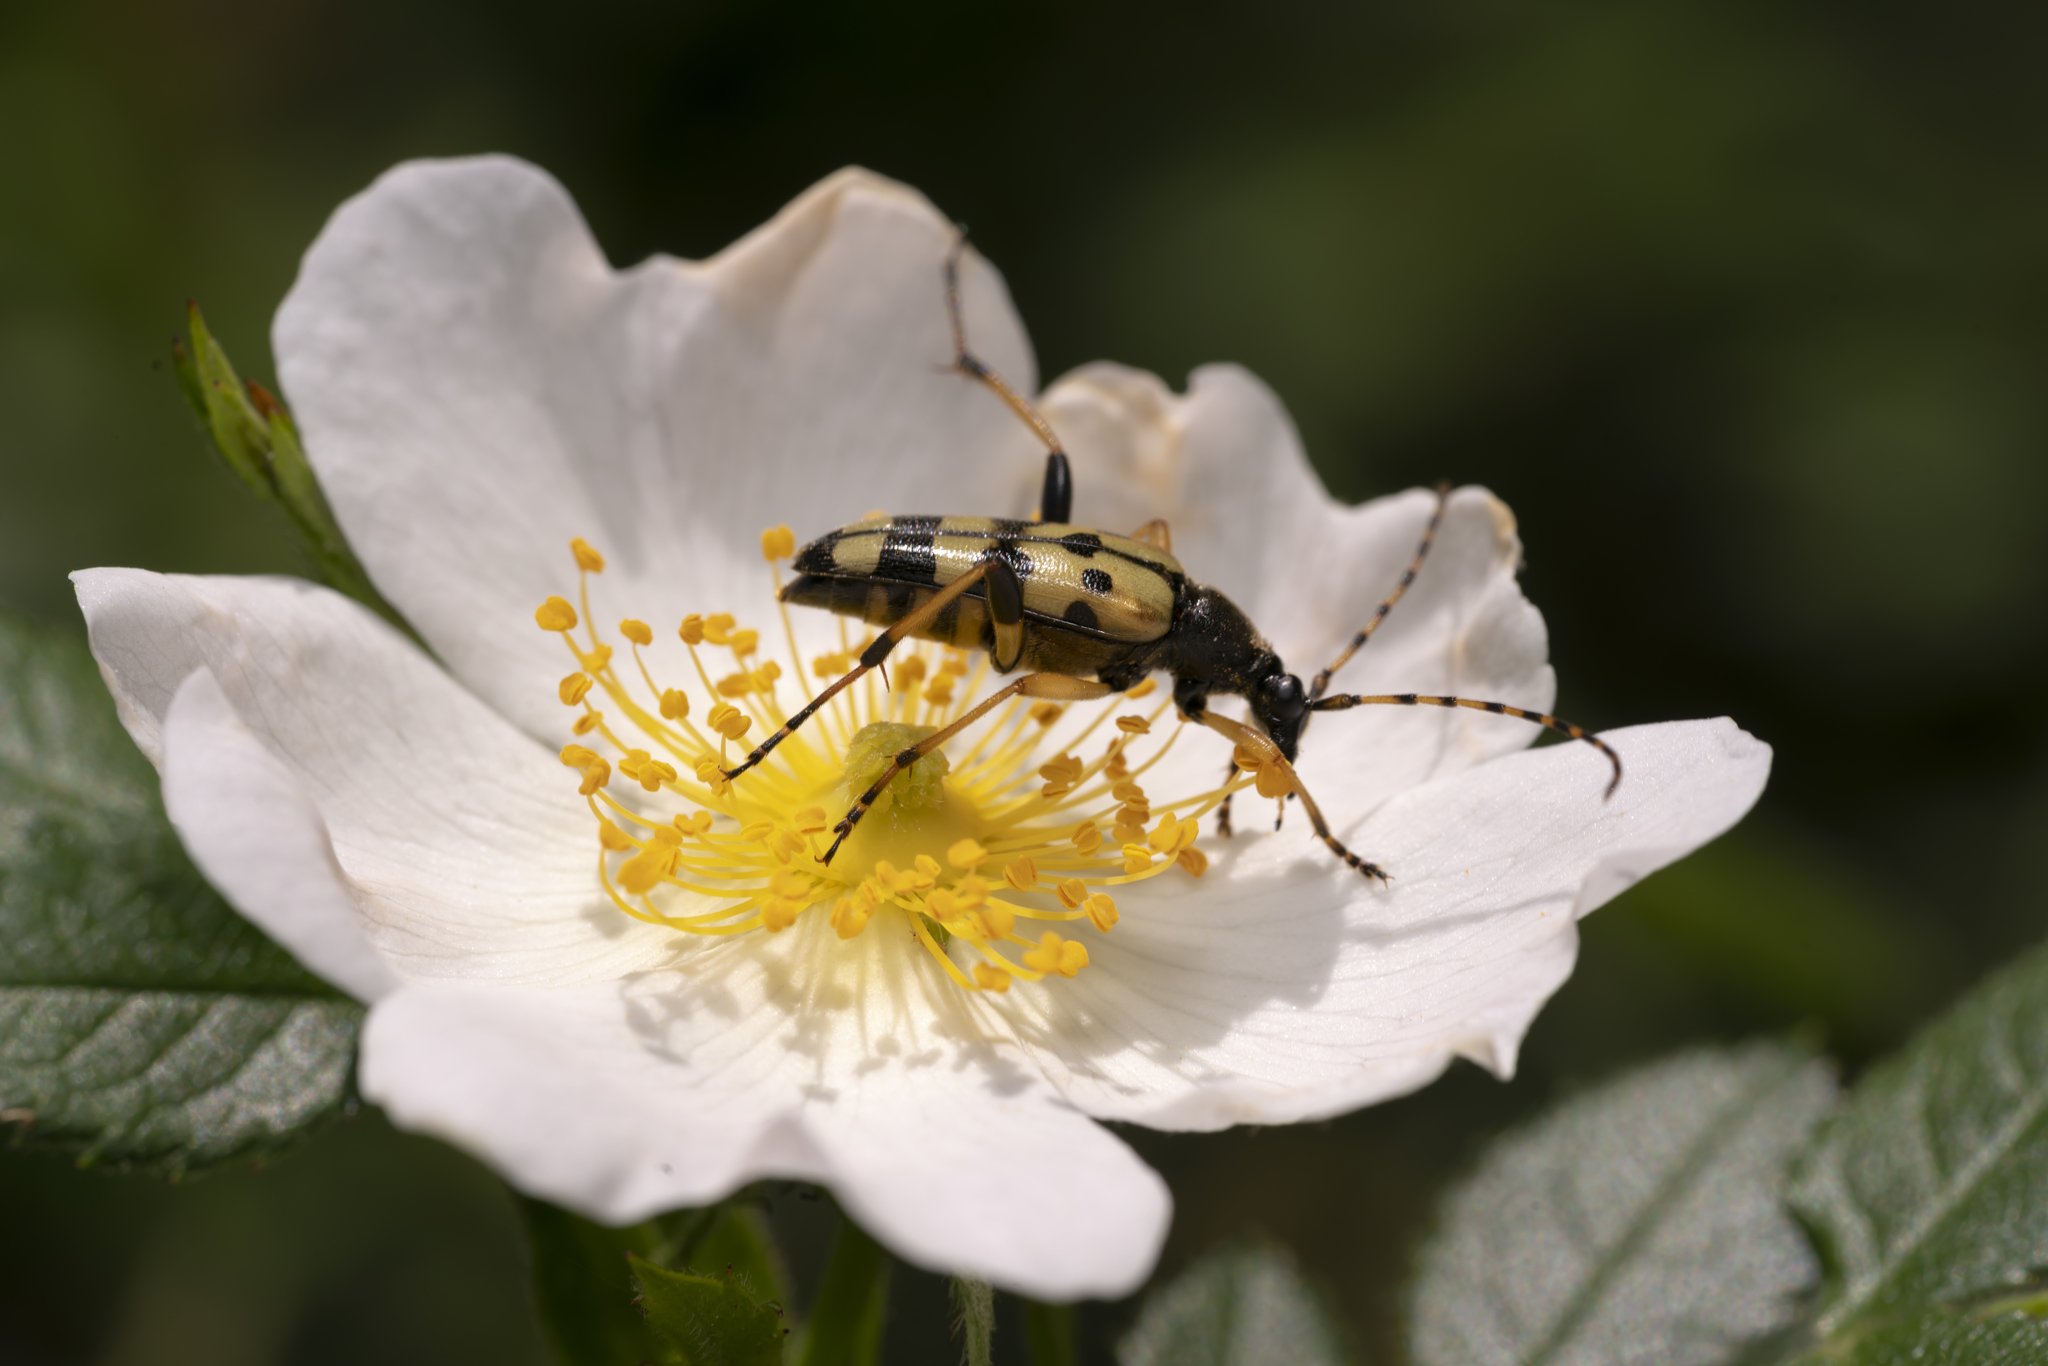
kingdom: Animalia
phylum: Arthropoda
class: Insecta
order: Coleoptera
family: Cerambycidae
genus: Rutpela
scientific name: Rutpela maculata
